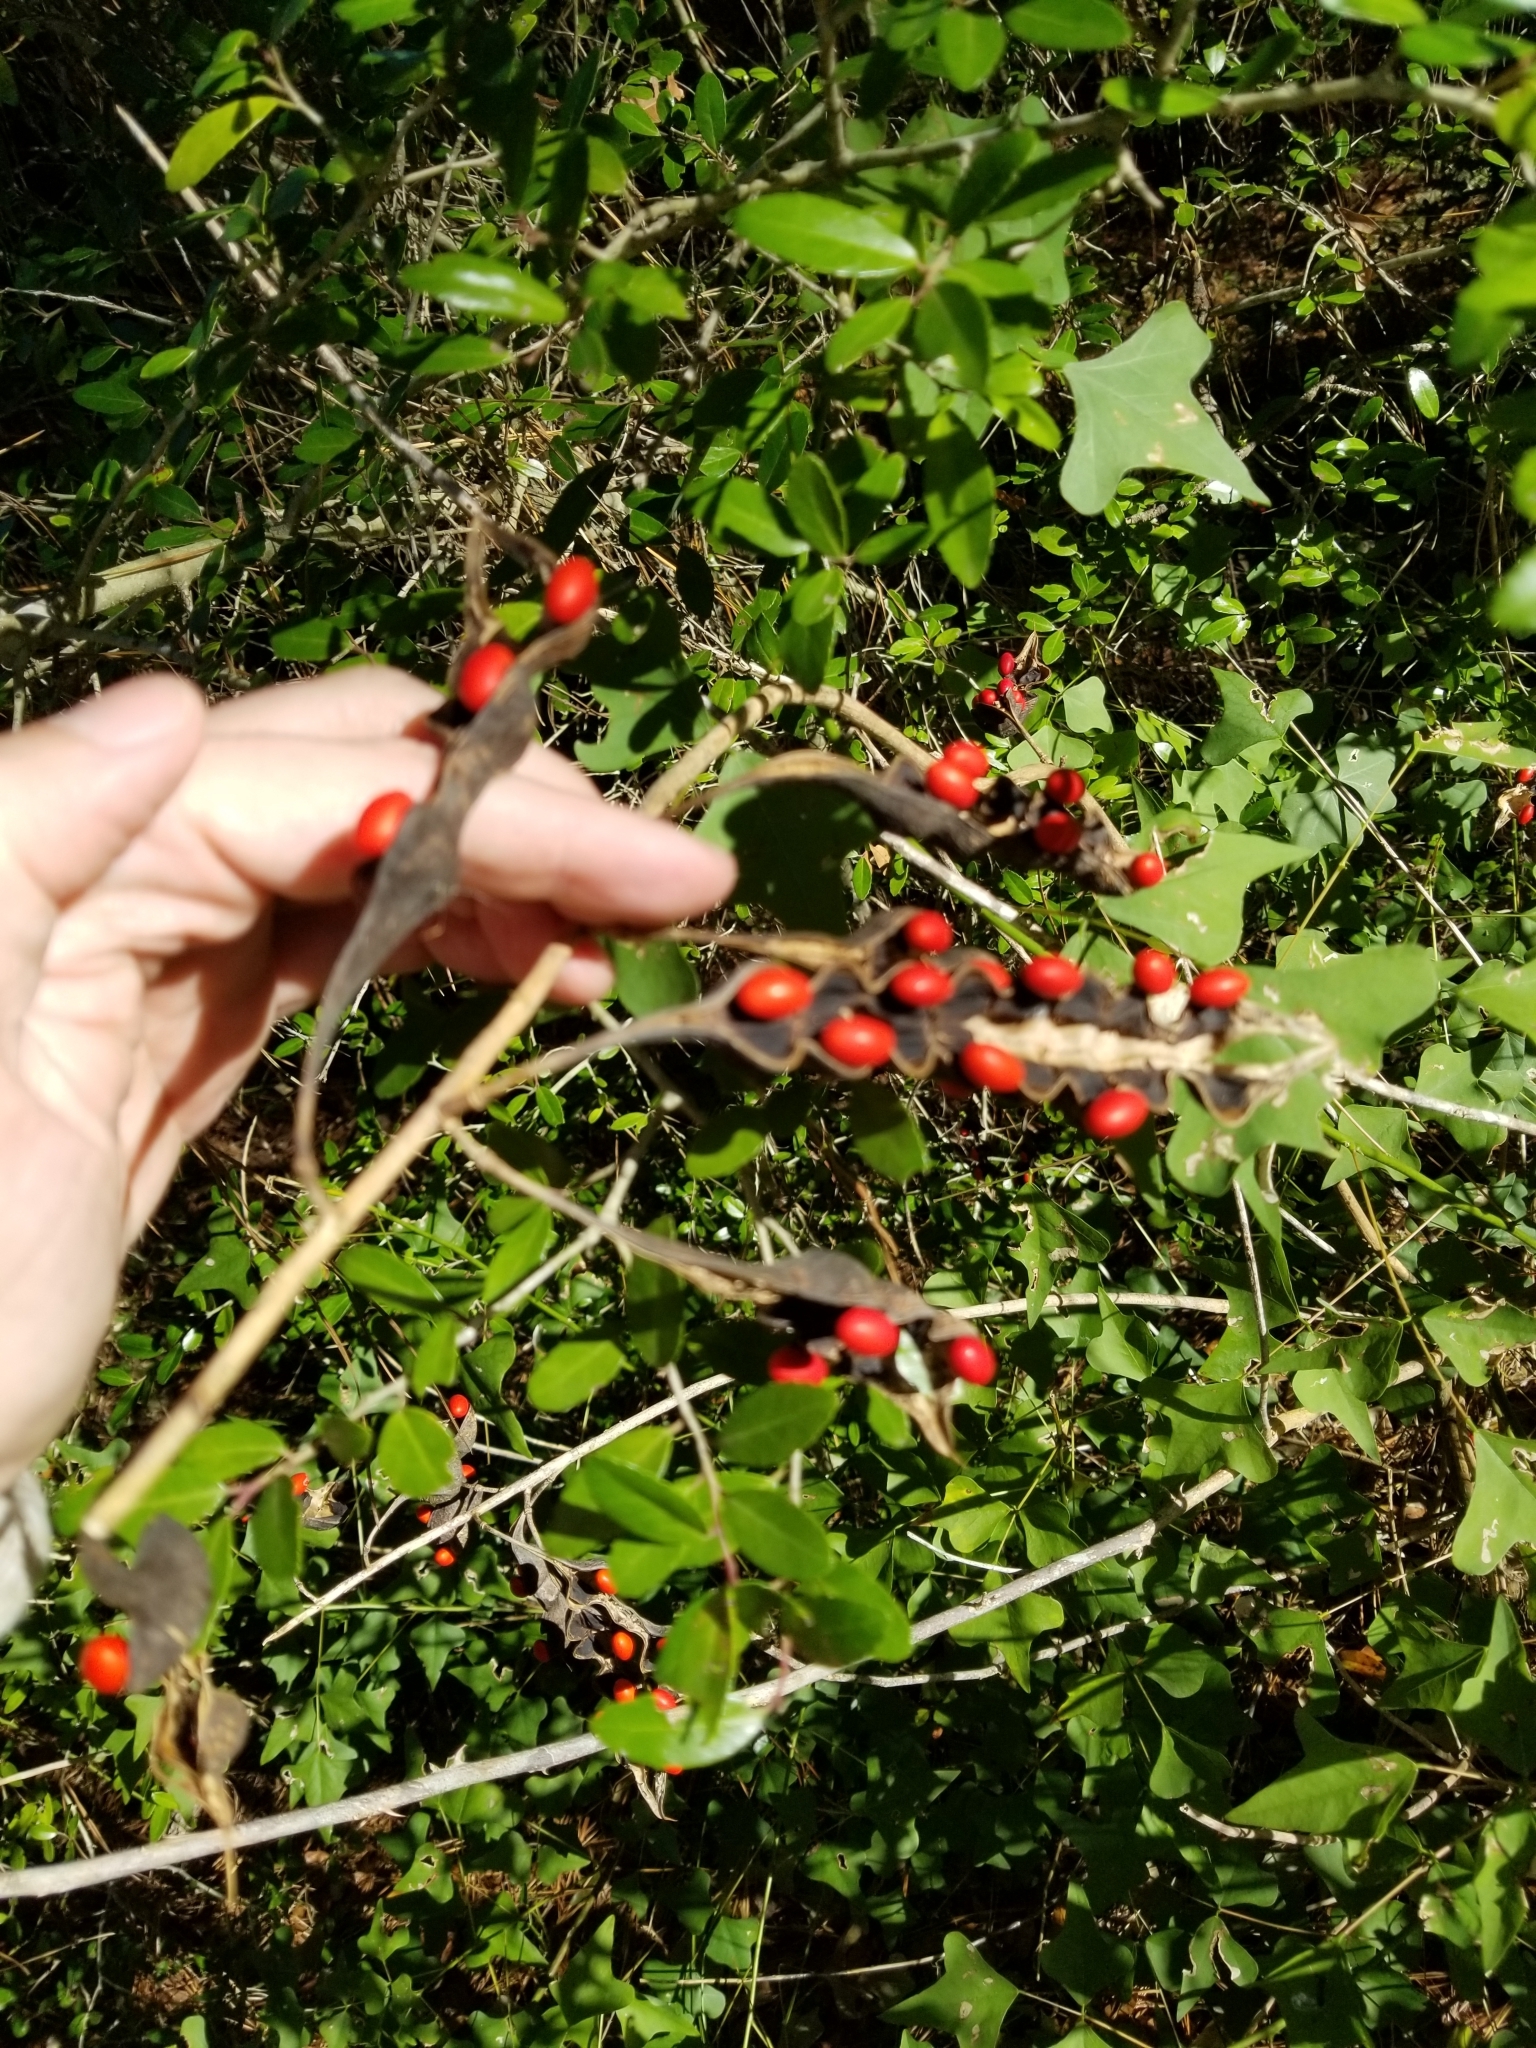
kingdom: Plantae
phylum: Tracheophyta
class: Magnoliopsida
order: Fabales
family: Fabaceae
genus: Erythrina
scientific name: Erythrina herbacea
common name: Coral-bean
